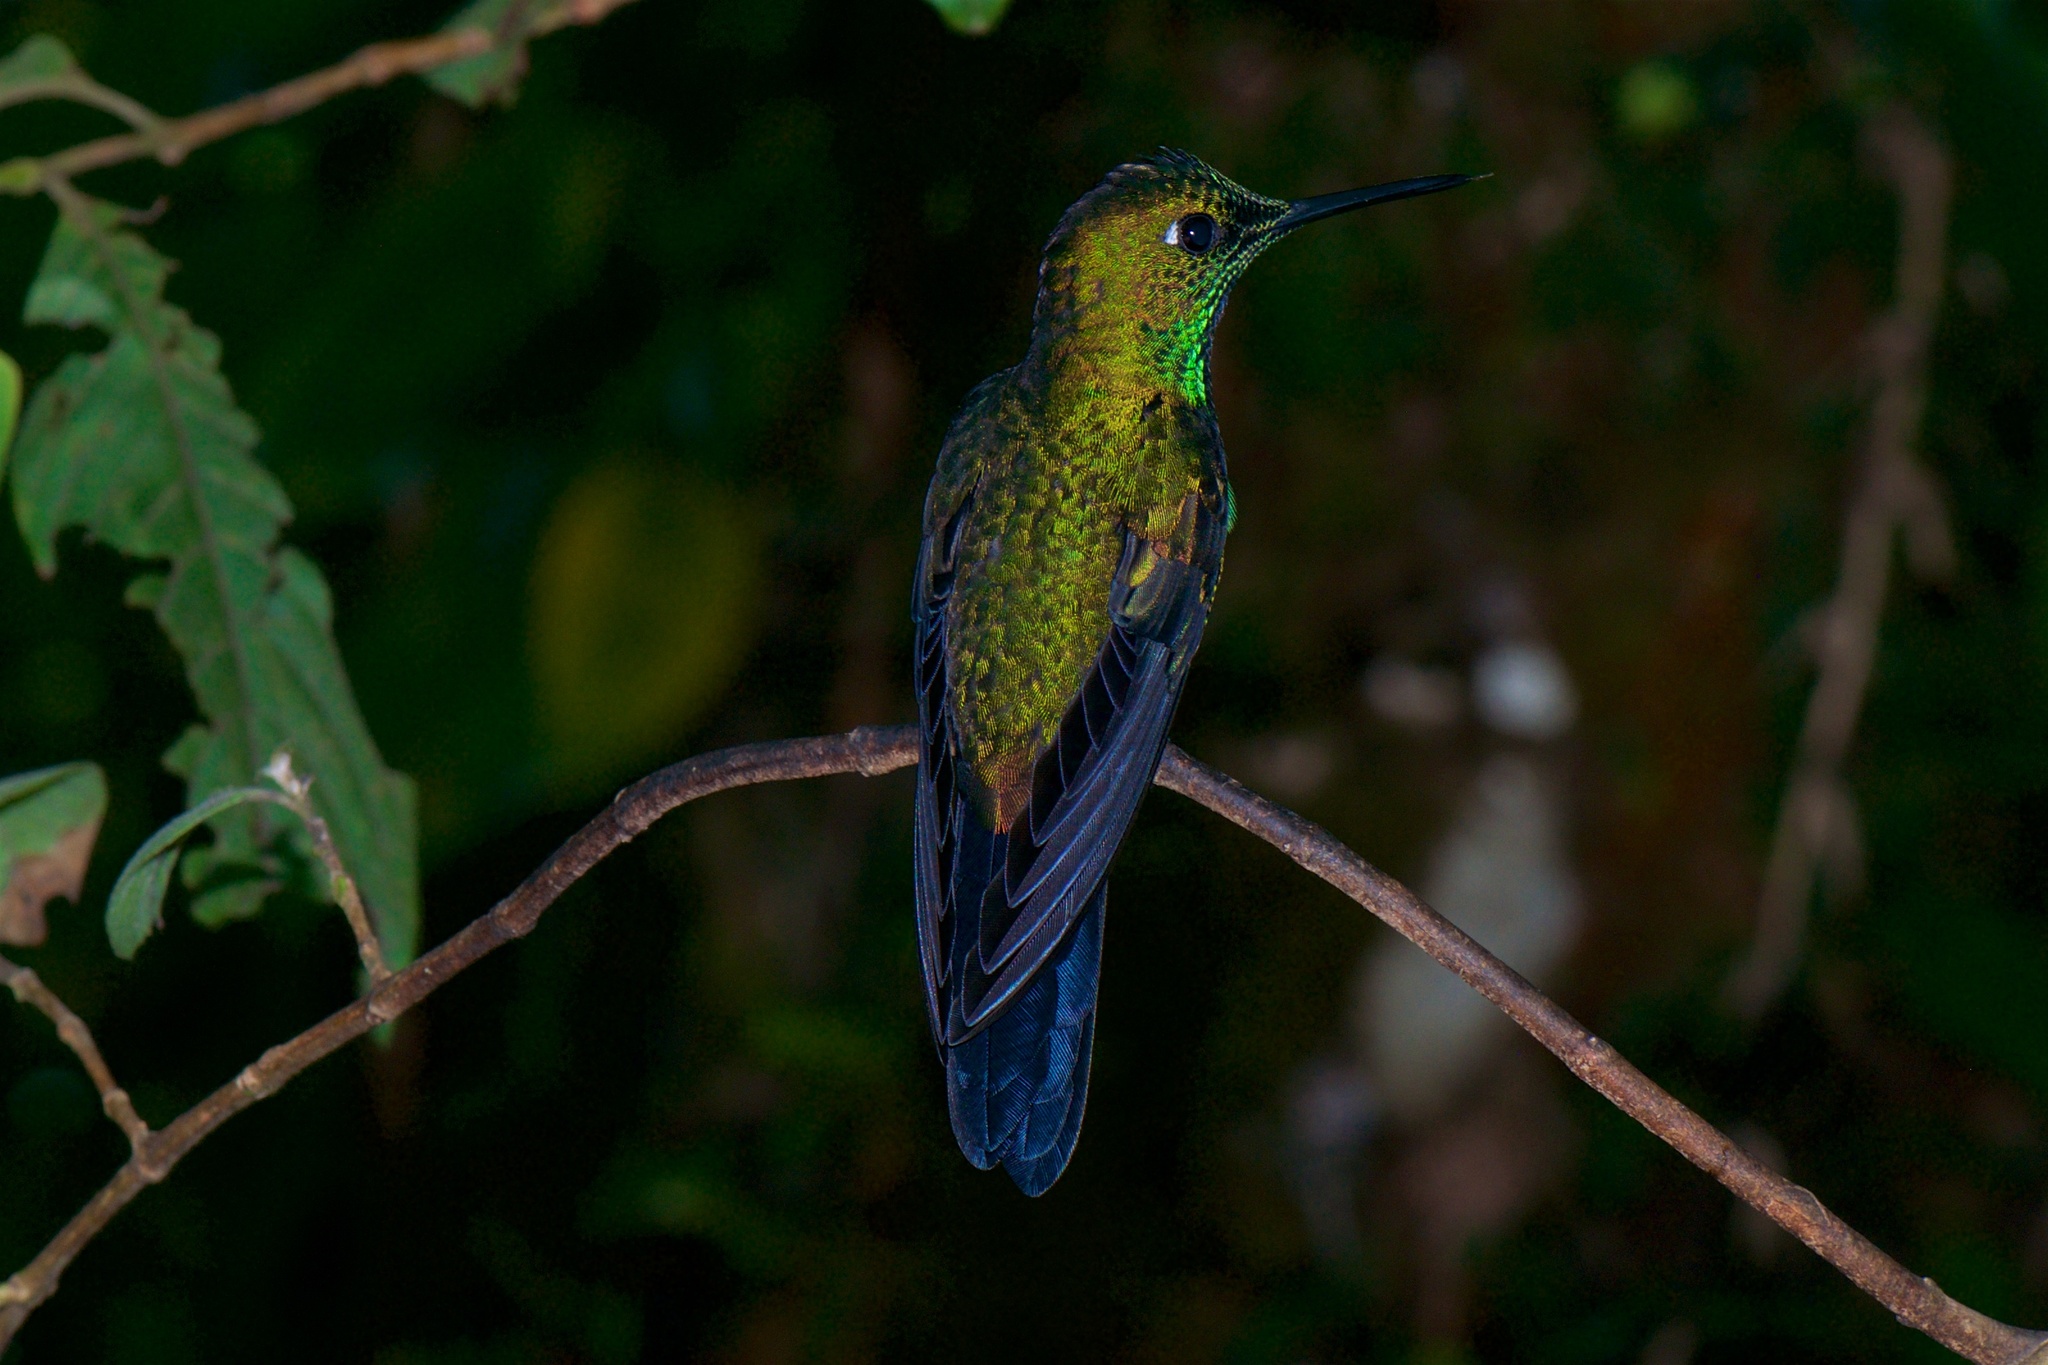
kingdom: Animalia
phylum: Chordata
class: Aves
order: Apodiformes
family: Trochilidae
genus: Heliodoxa
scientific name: Heliodoxa jacula
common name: Green-crowned brilliant
